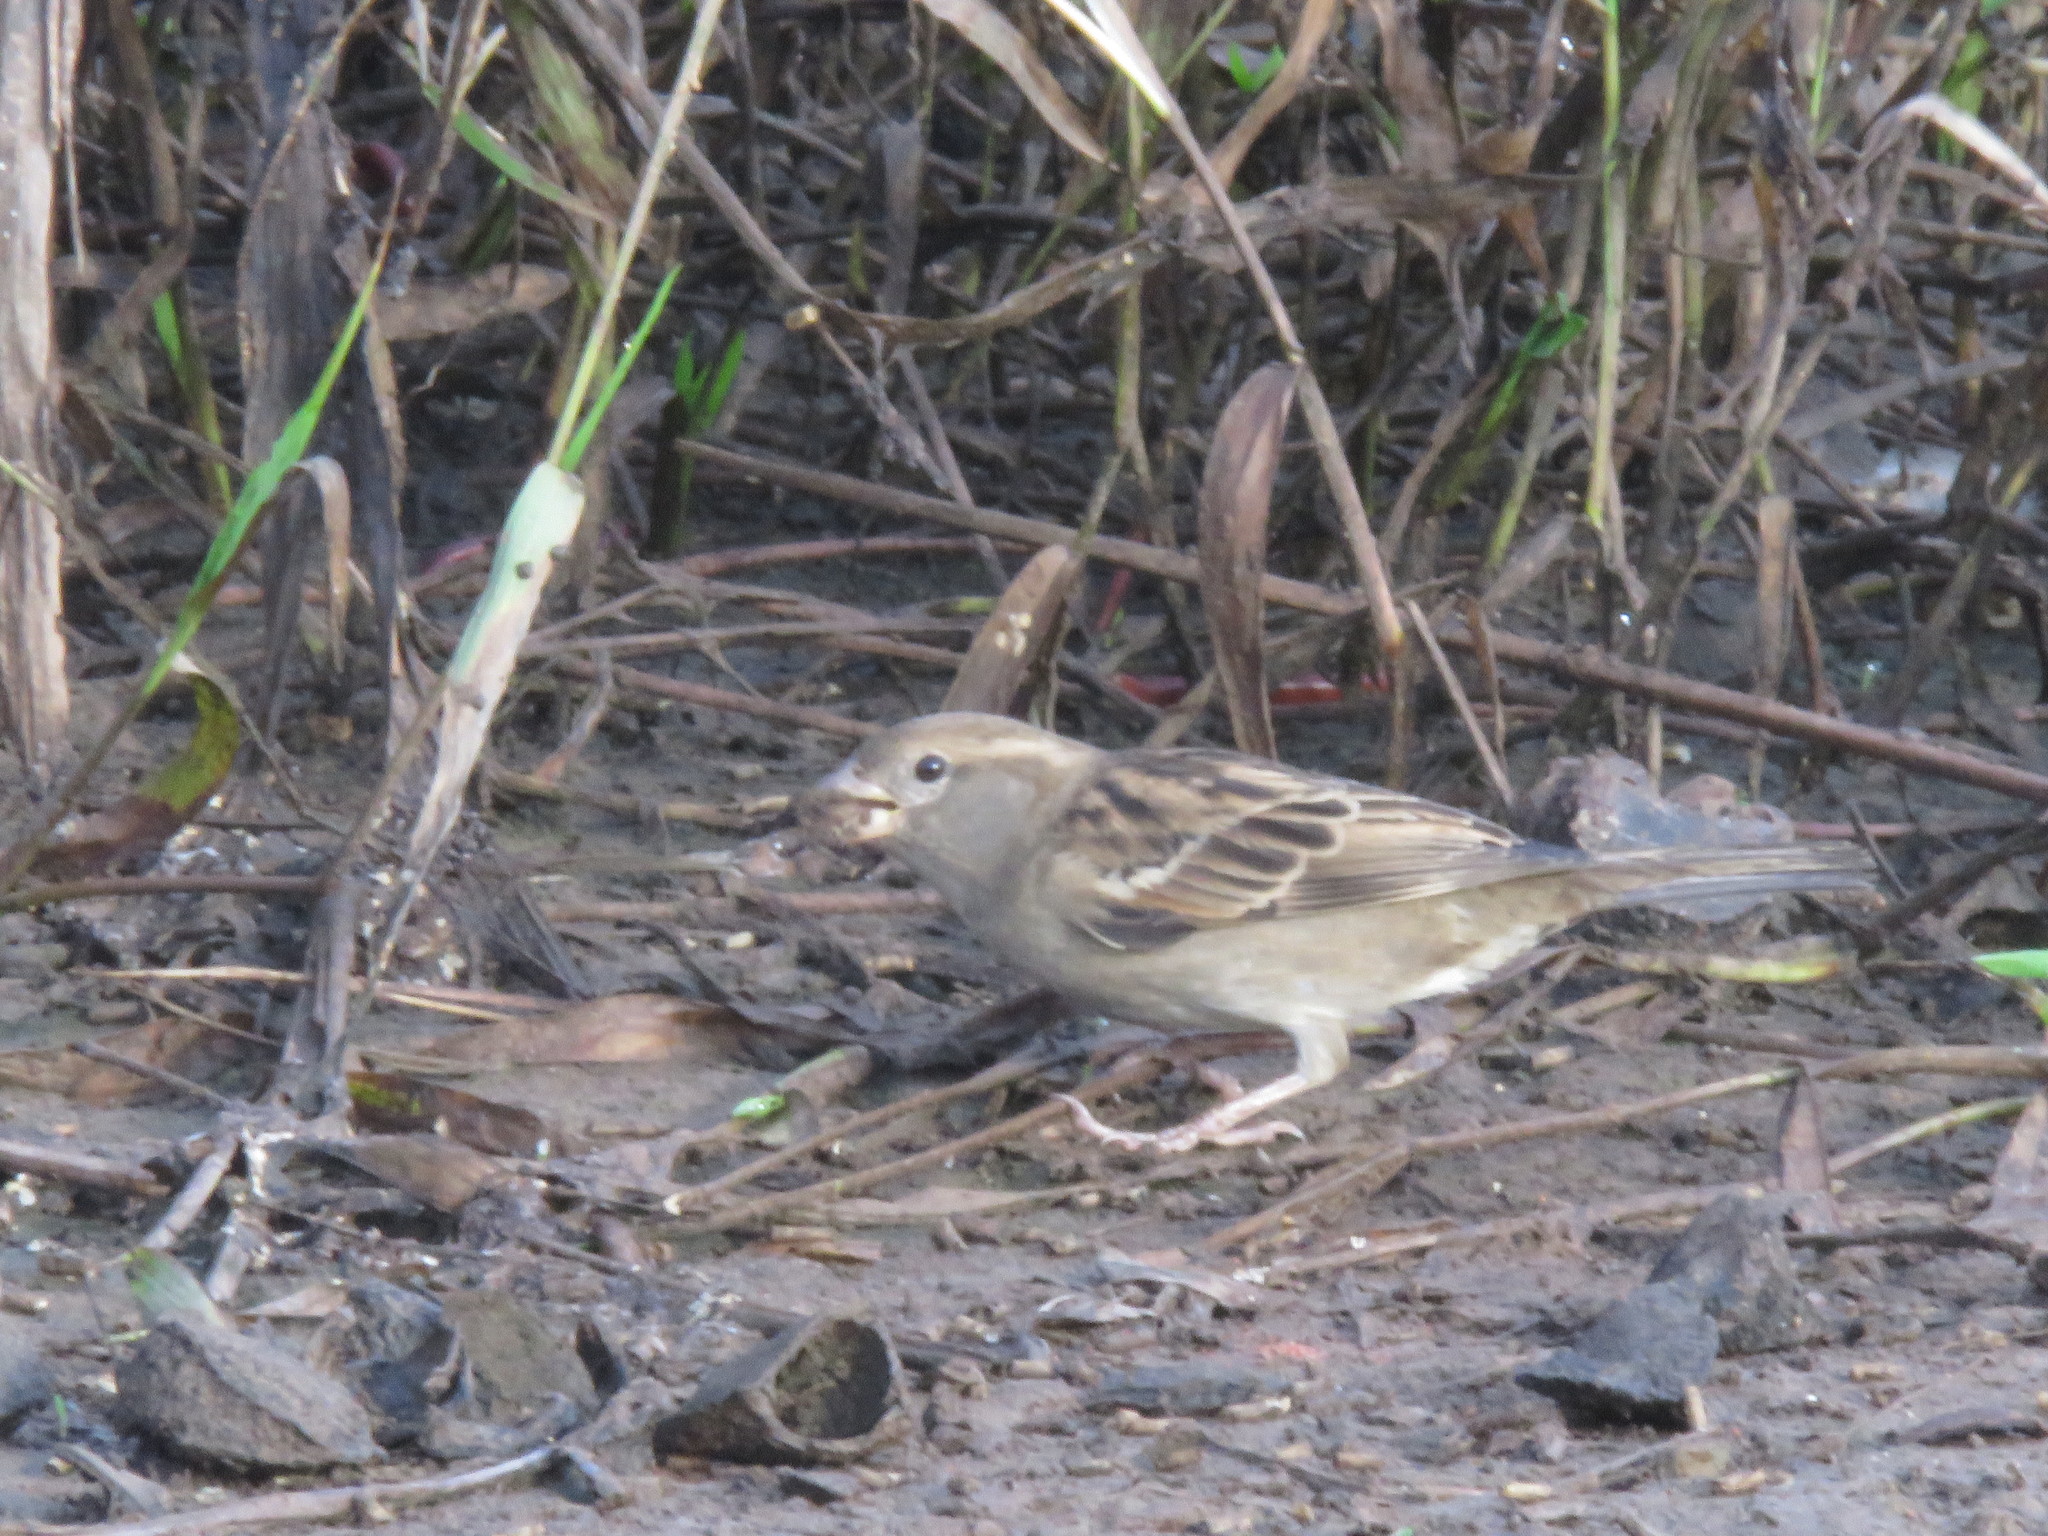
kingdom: Animalia
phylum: Chordata
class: Aves
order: Passeriformes
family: Passeridae
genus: Passer
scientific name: Passer domesticus
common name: House sparrow
